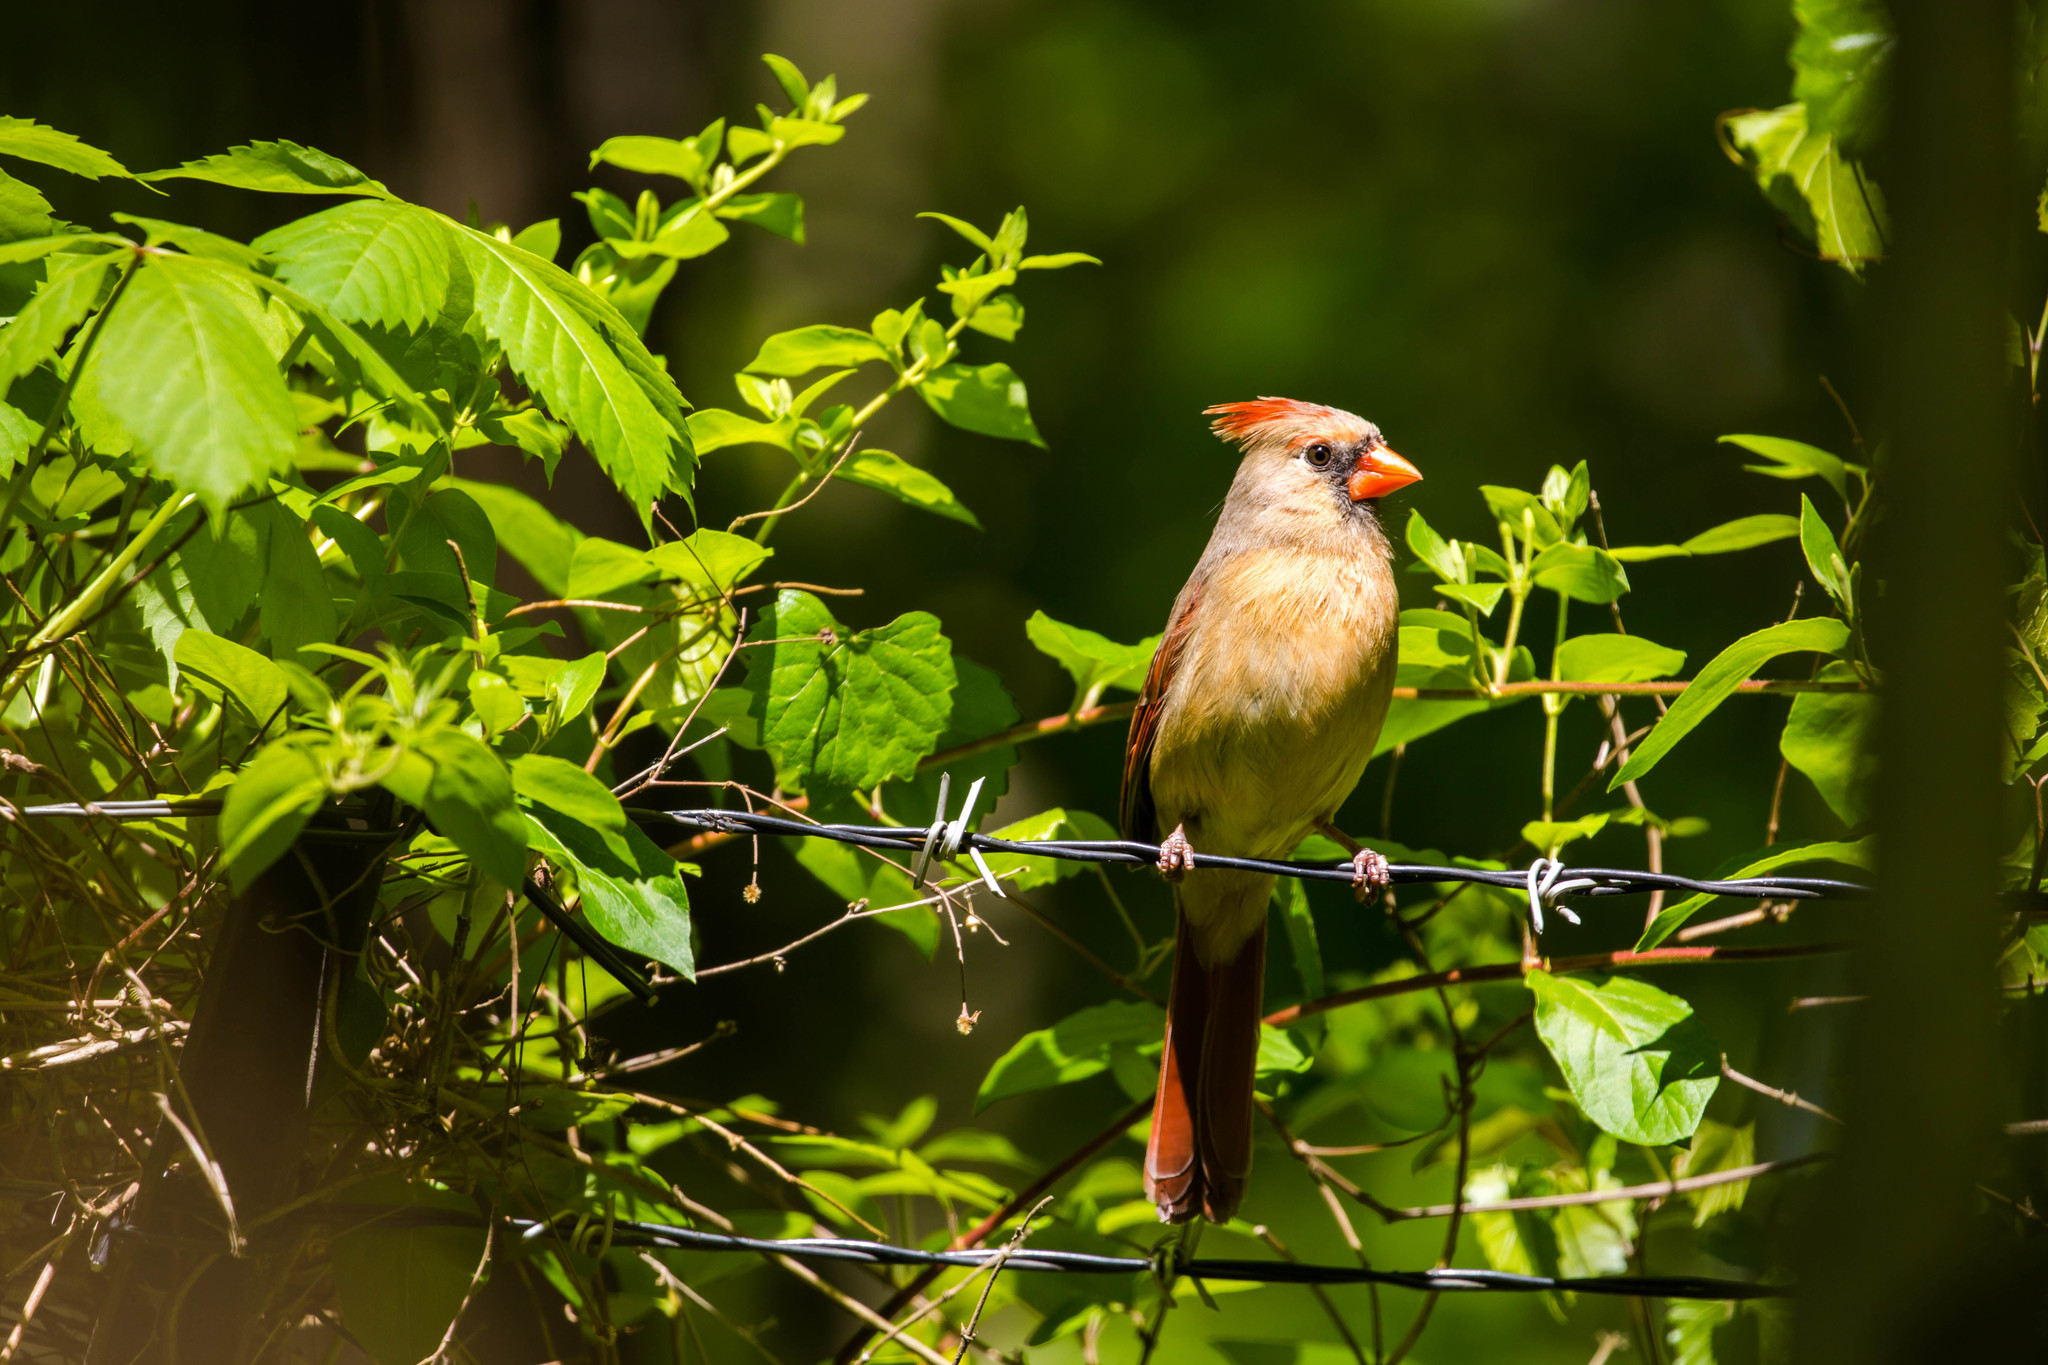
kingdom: Animalia
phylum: Chordata
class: Aves
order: Passeriformes
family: Cardinalidae
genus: Cardinalis
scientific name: Cardinalis cardinalis
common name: Northern cardinal
